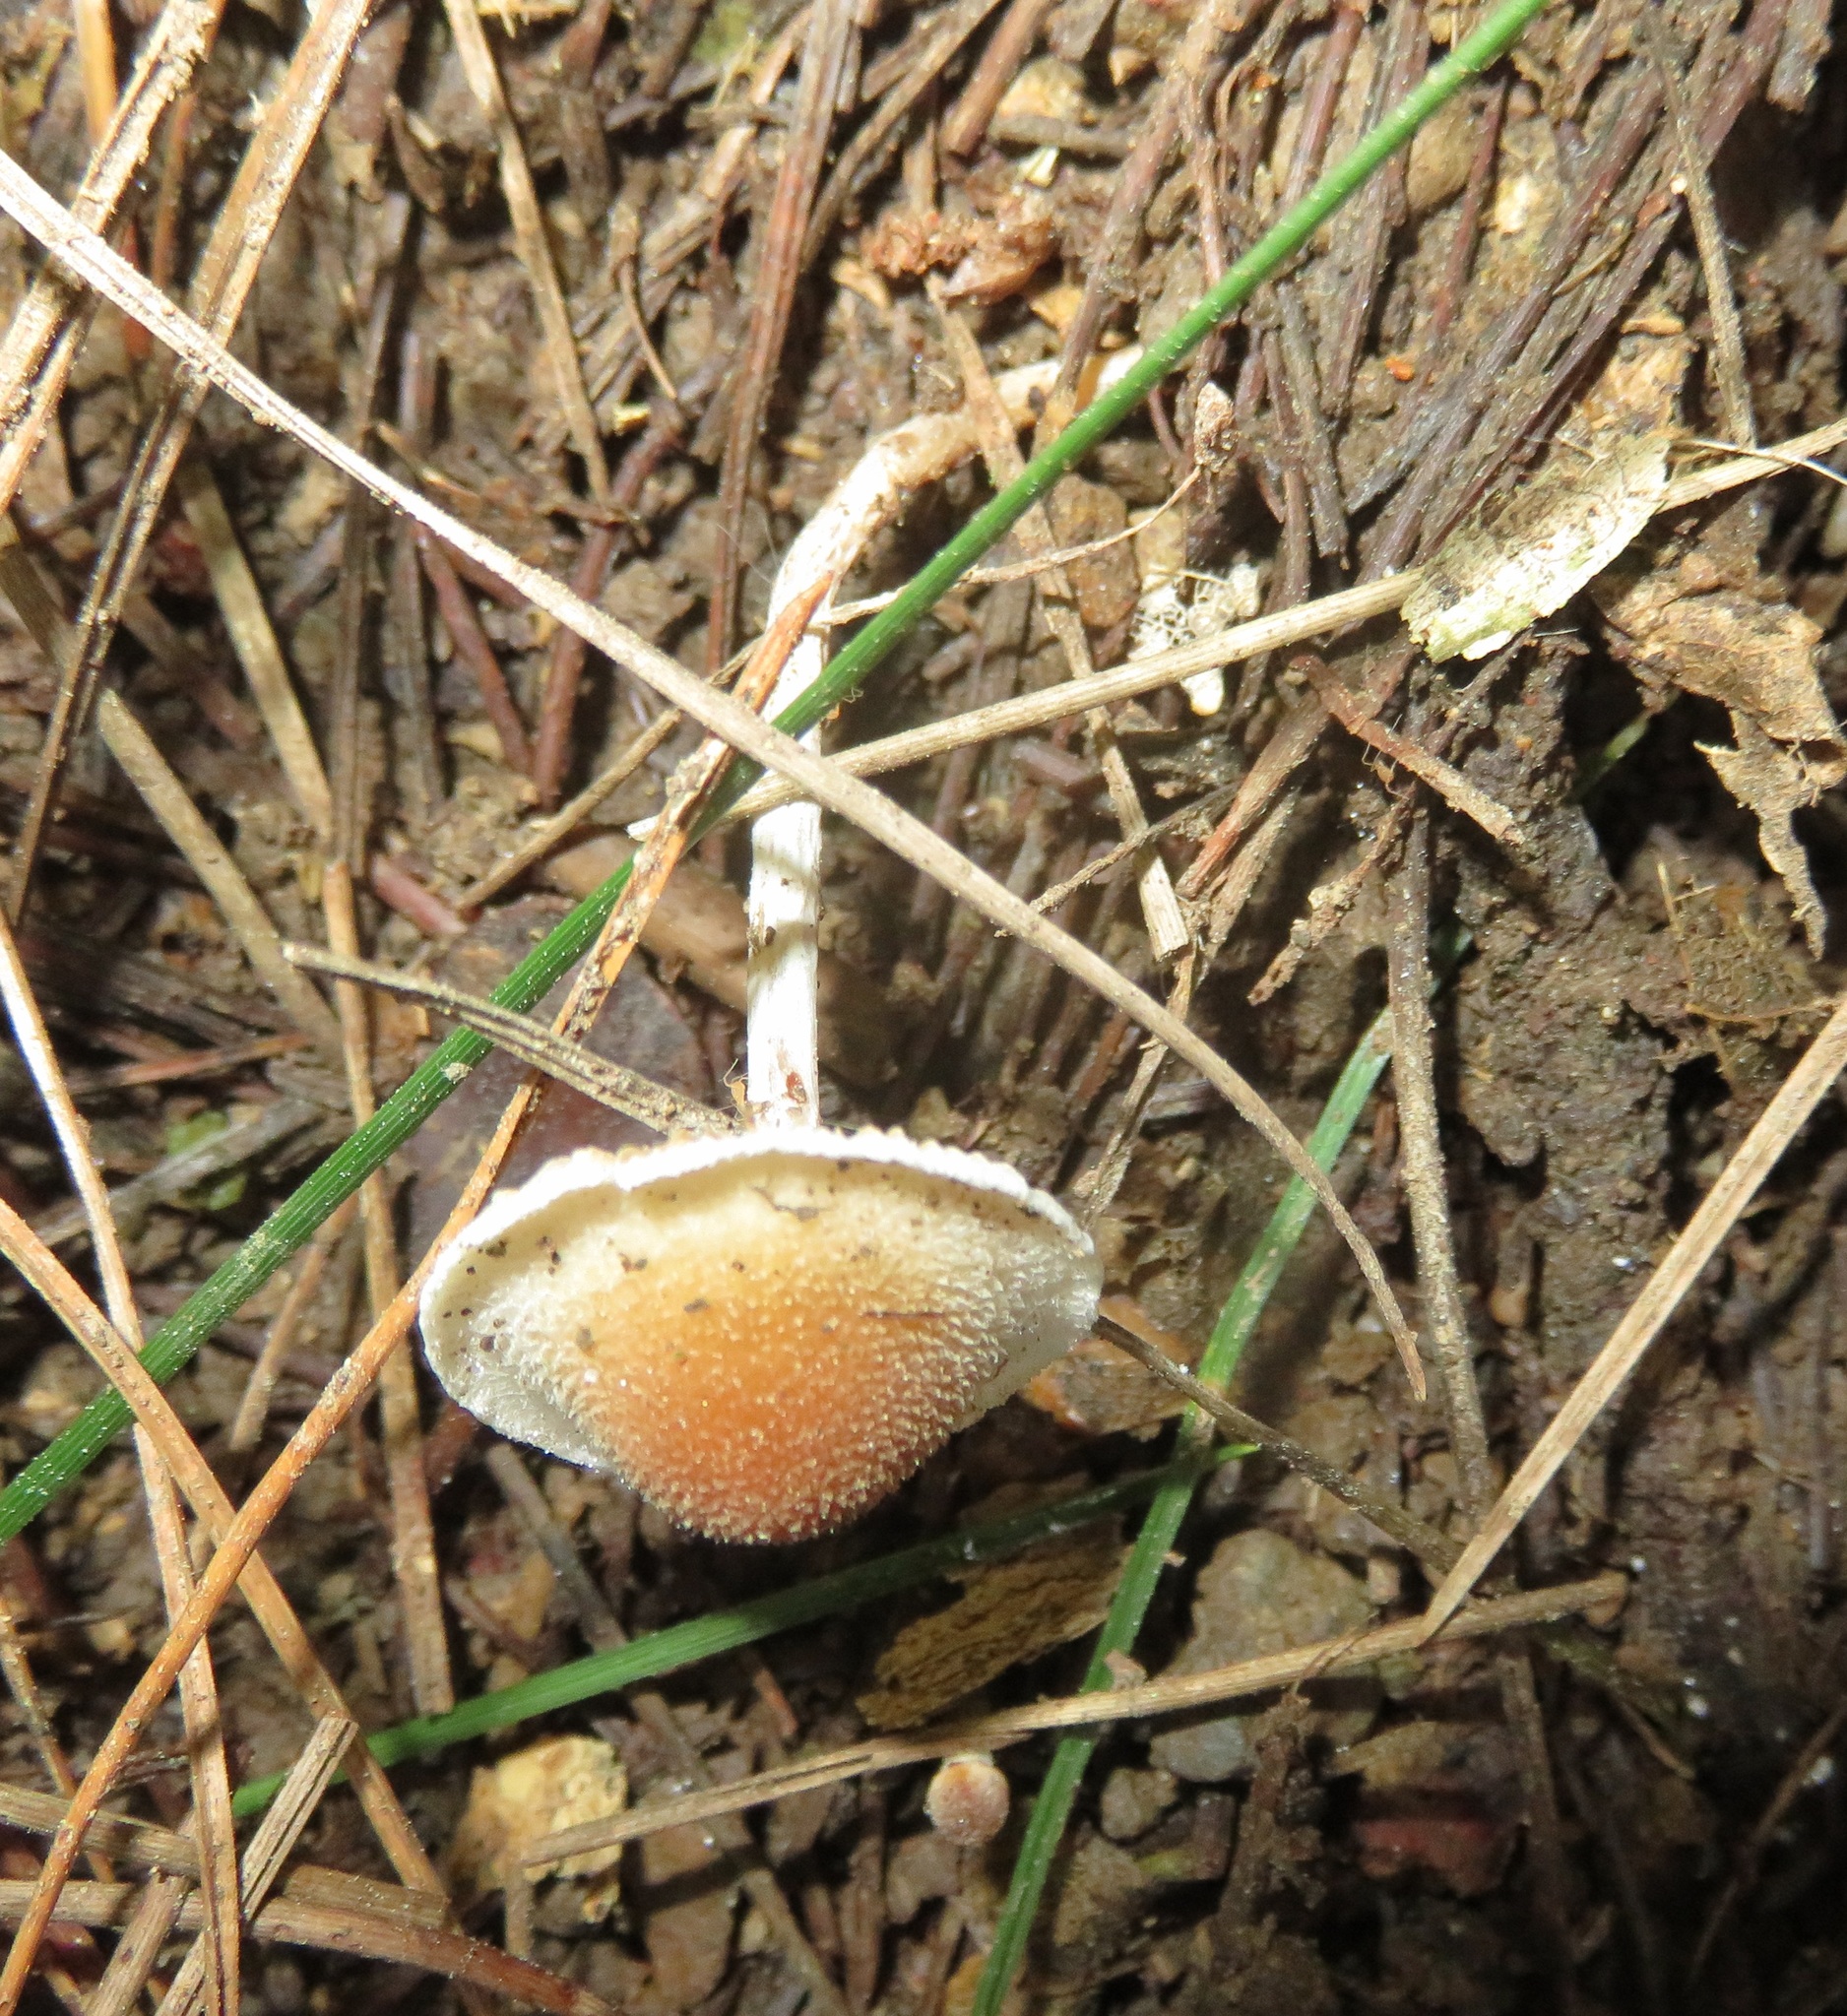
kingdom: Fungi
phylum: Basidiomycota
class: Agaricomycetes
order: Agaricales
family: Bolbitiaceae
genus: Tympanella
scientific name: Tympanella galanthina
